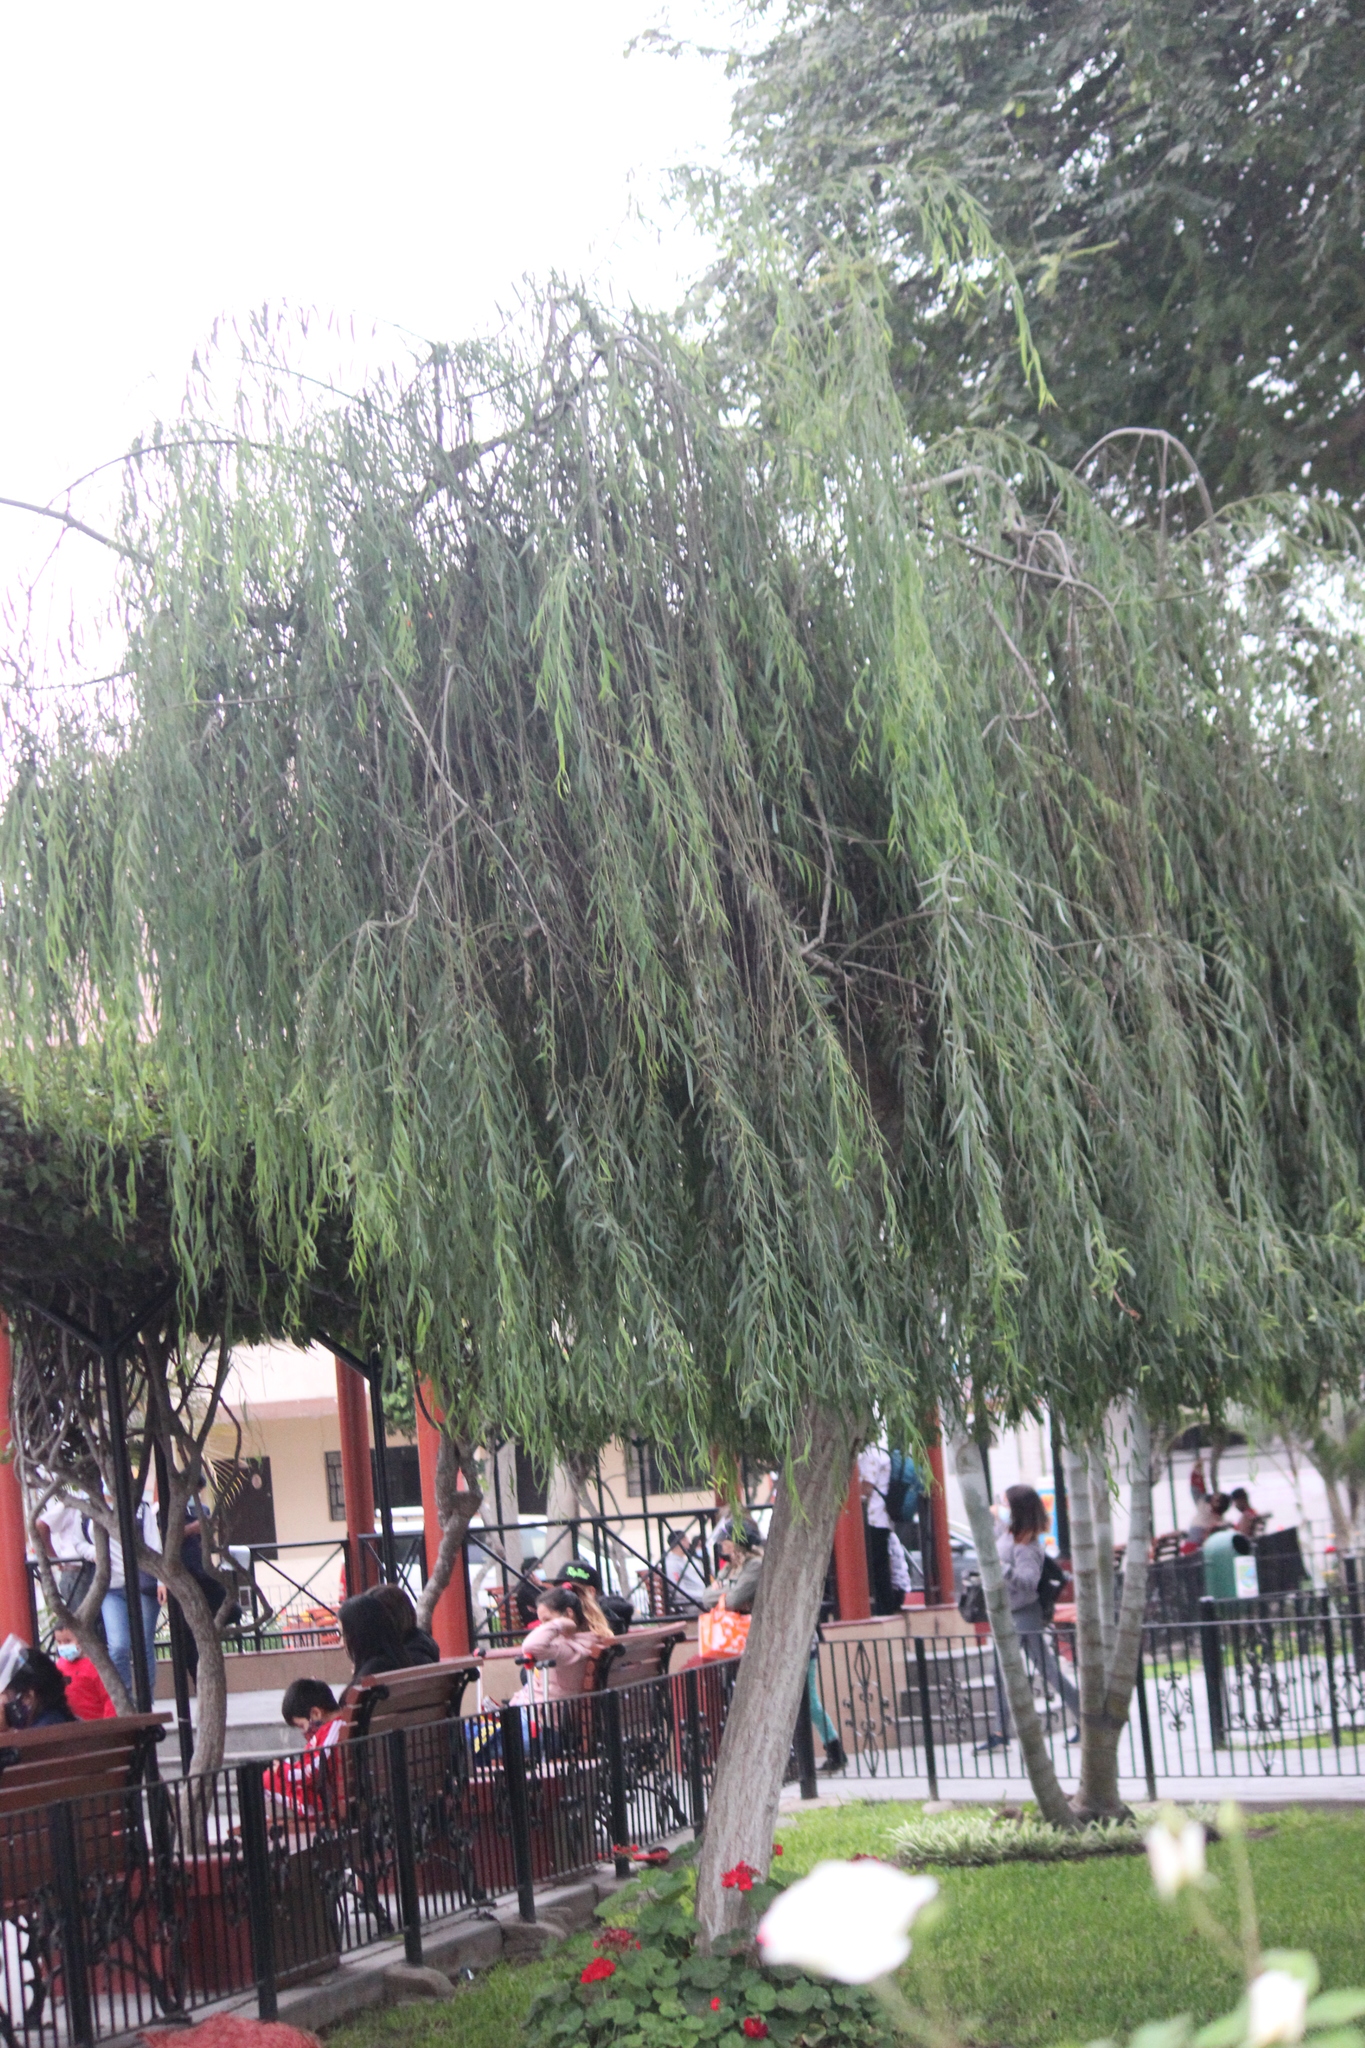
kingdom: Plantae
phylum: Tracheophyta
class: Magnoliopsida
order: Malpighiales
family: Salicaceae
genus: Salix
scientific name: Salix babylonica
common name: Weeping willow
